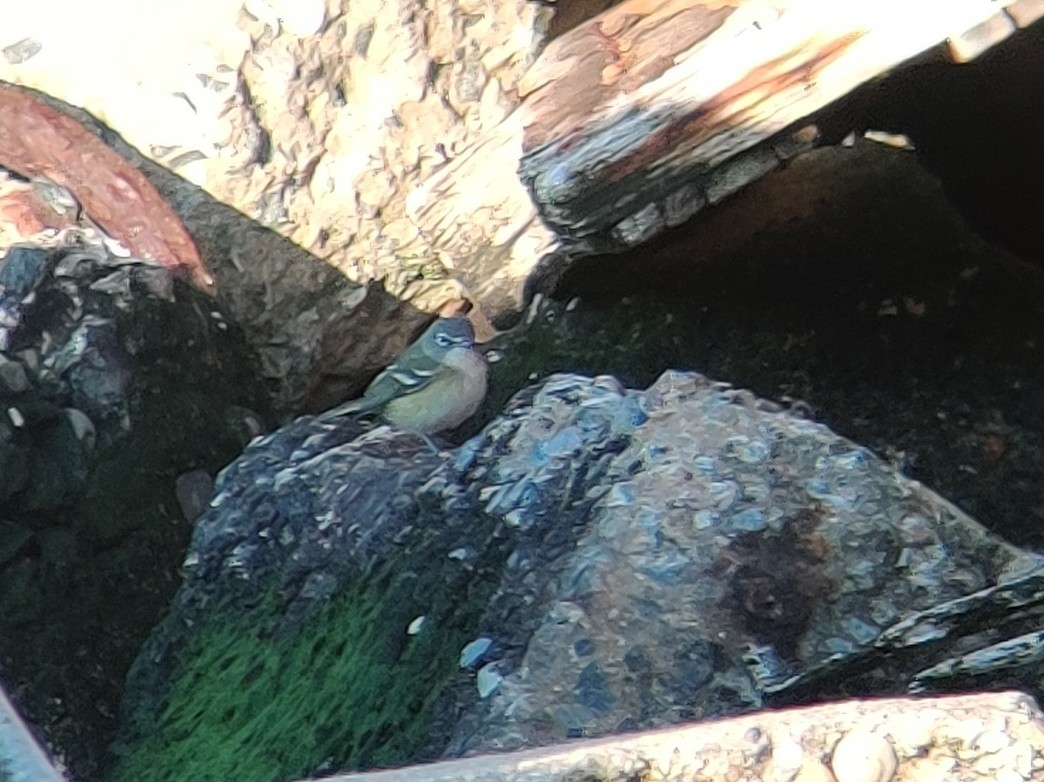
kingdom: Animalia
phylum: Chordata
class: Aves
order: Passeriformes
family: Vireonidae
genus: Vireo
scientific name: Vireo solitarius
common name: Blue-headed vireo
